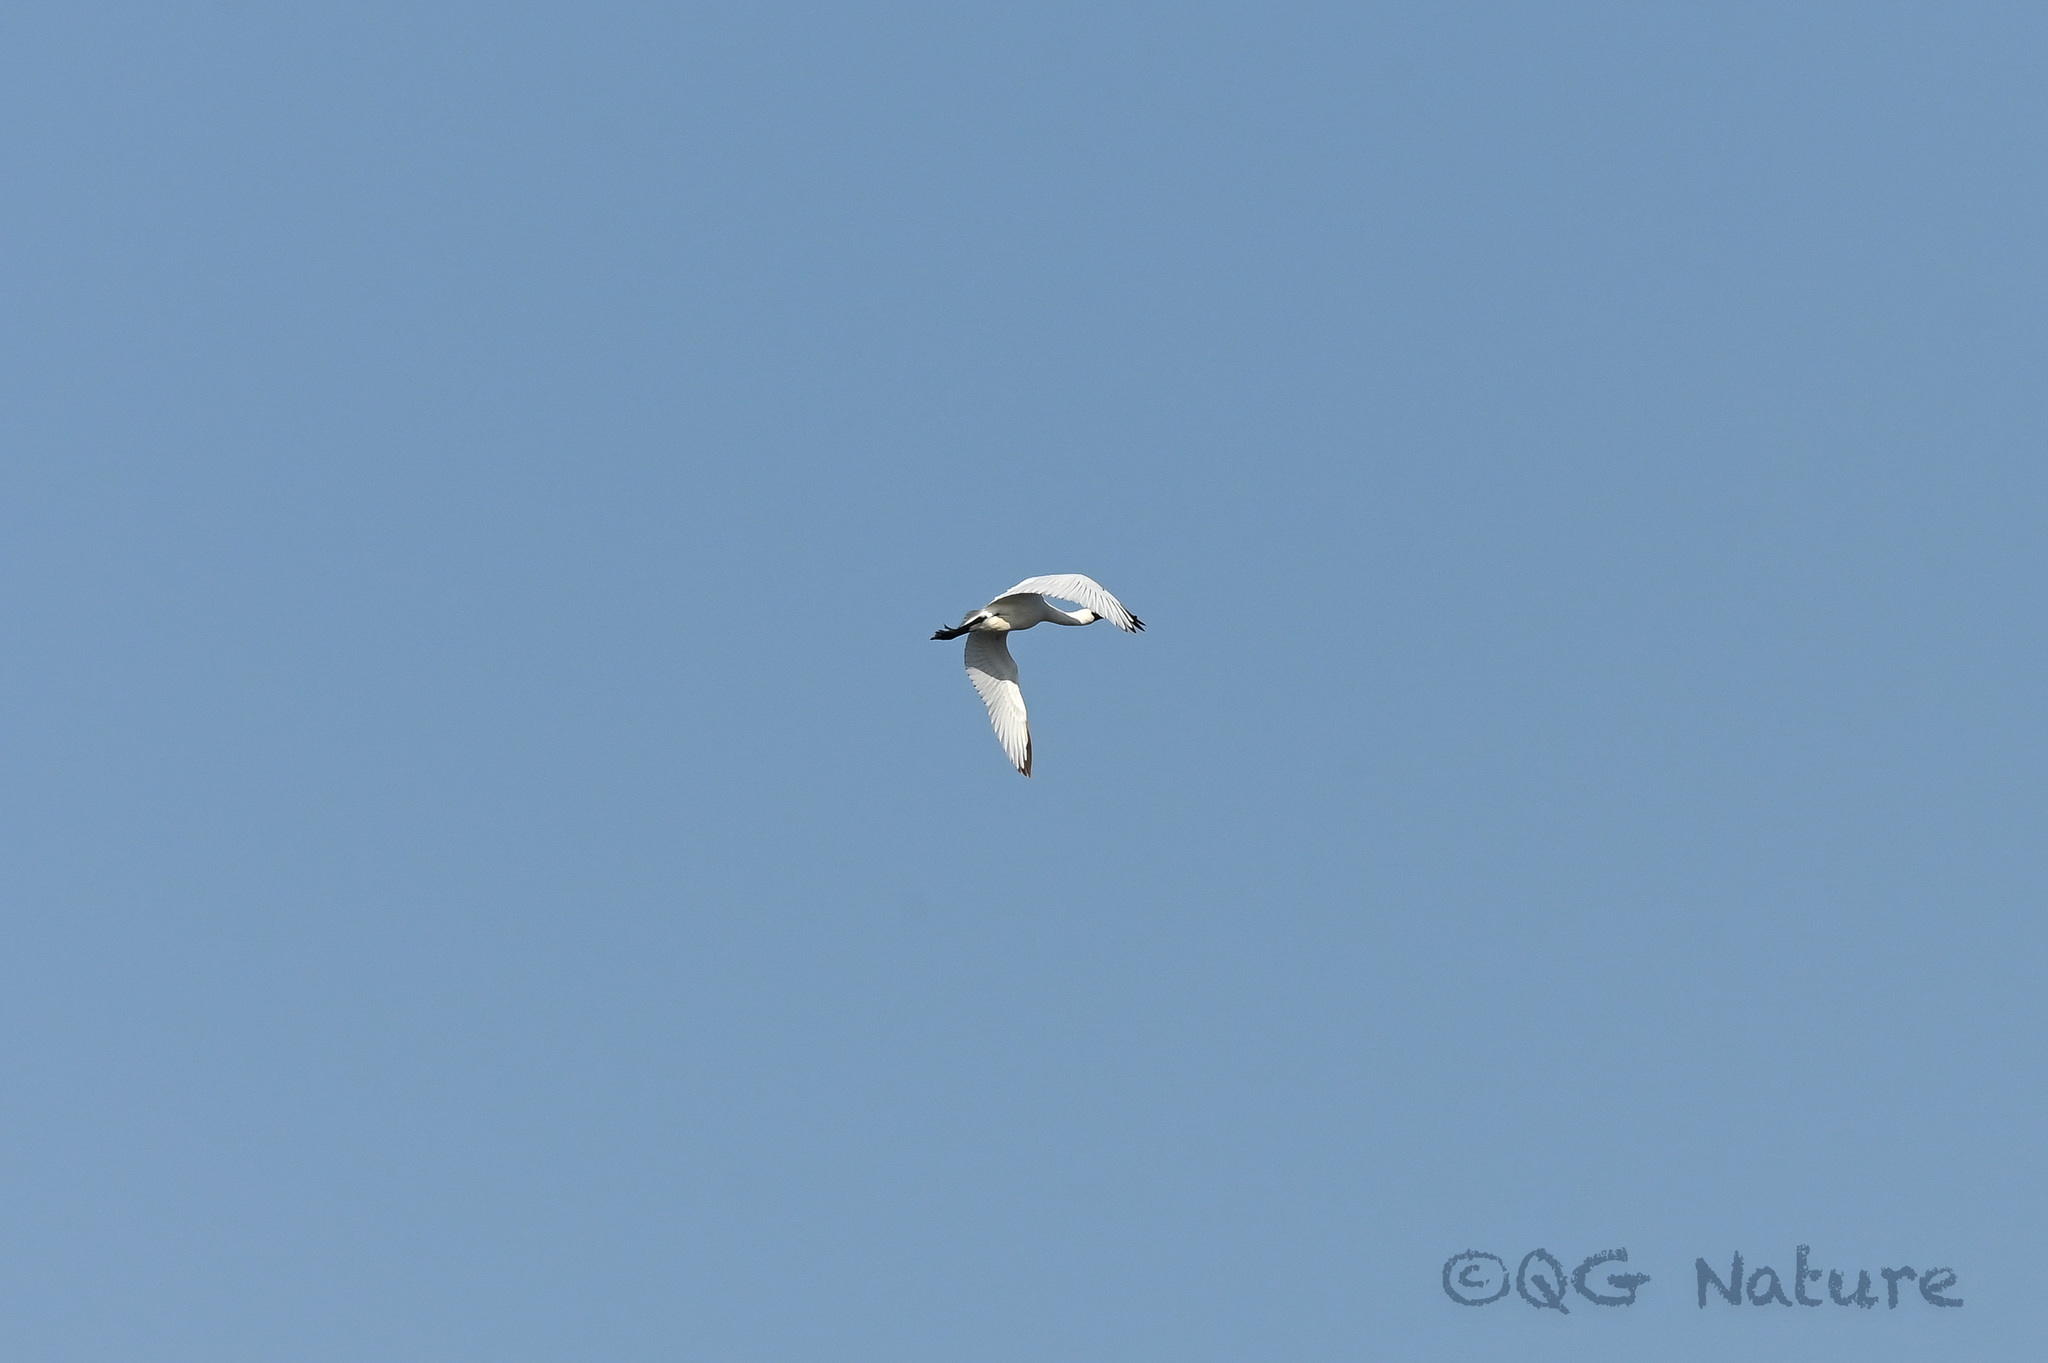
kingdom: Animalia
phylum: Chordata
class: Aves
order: Pelecaniformes
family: Threskiornithidae
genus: Platalea
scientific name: Platalea minor
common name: Black-faced spoonbill
